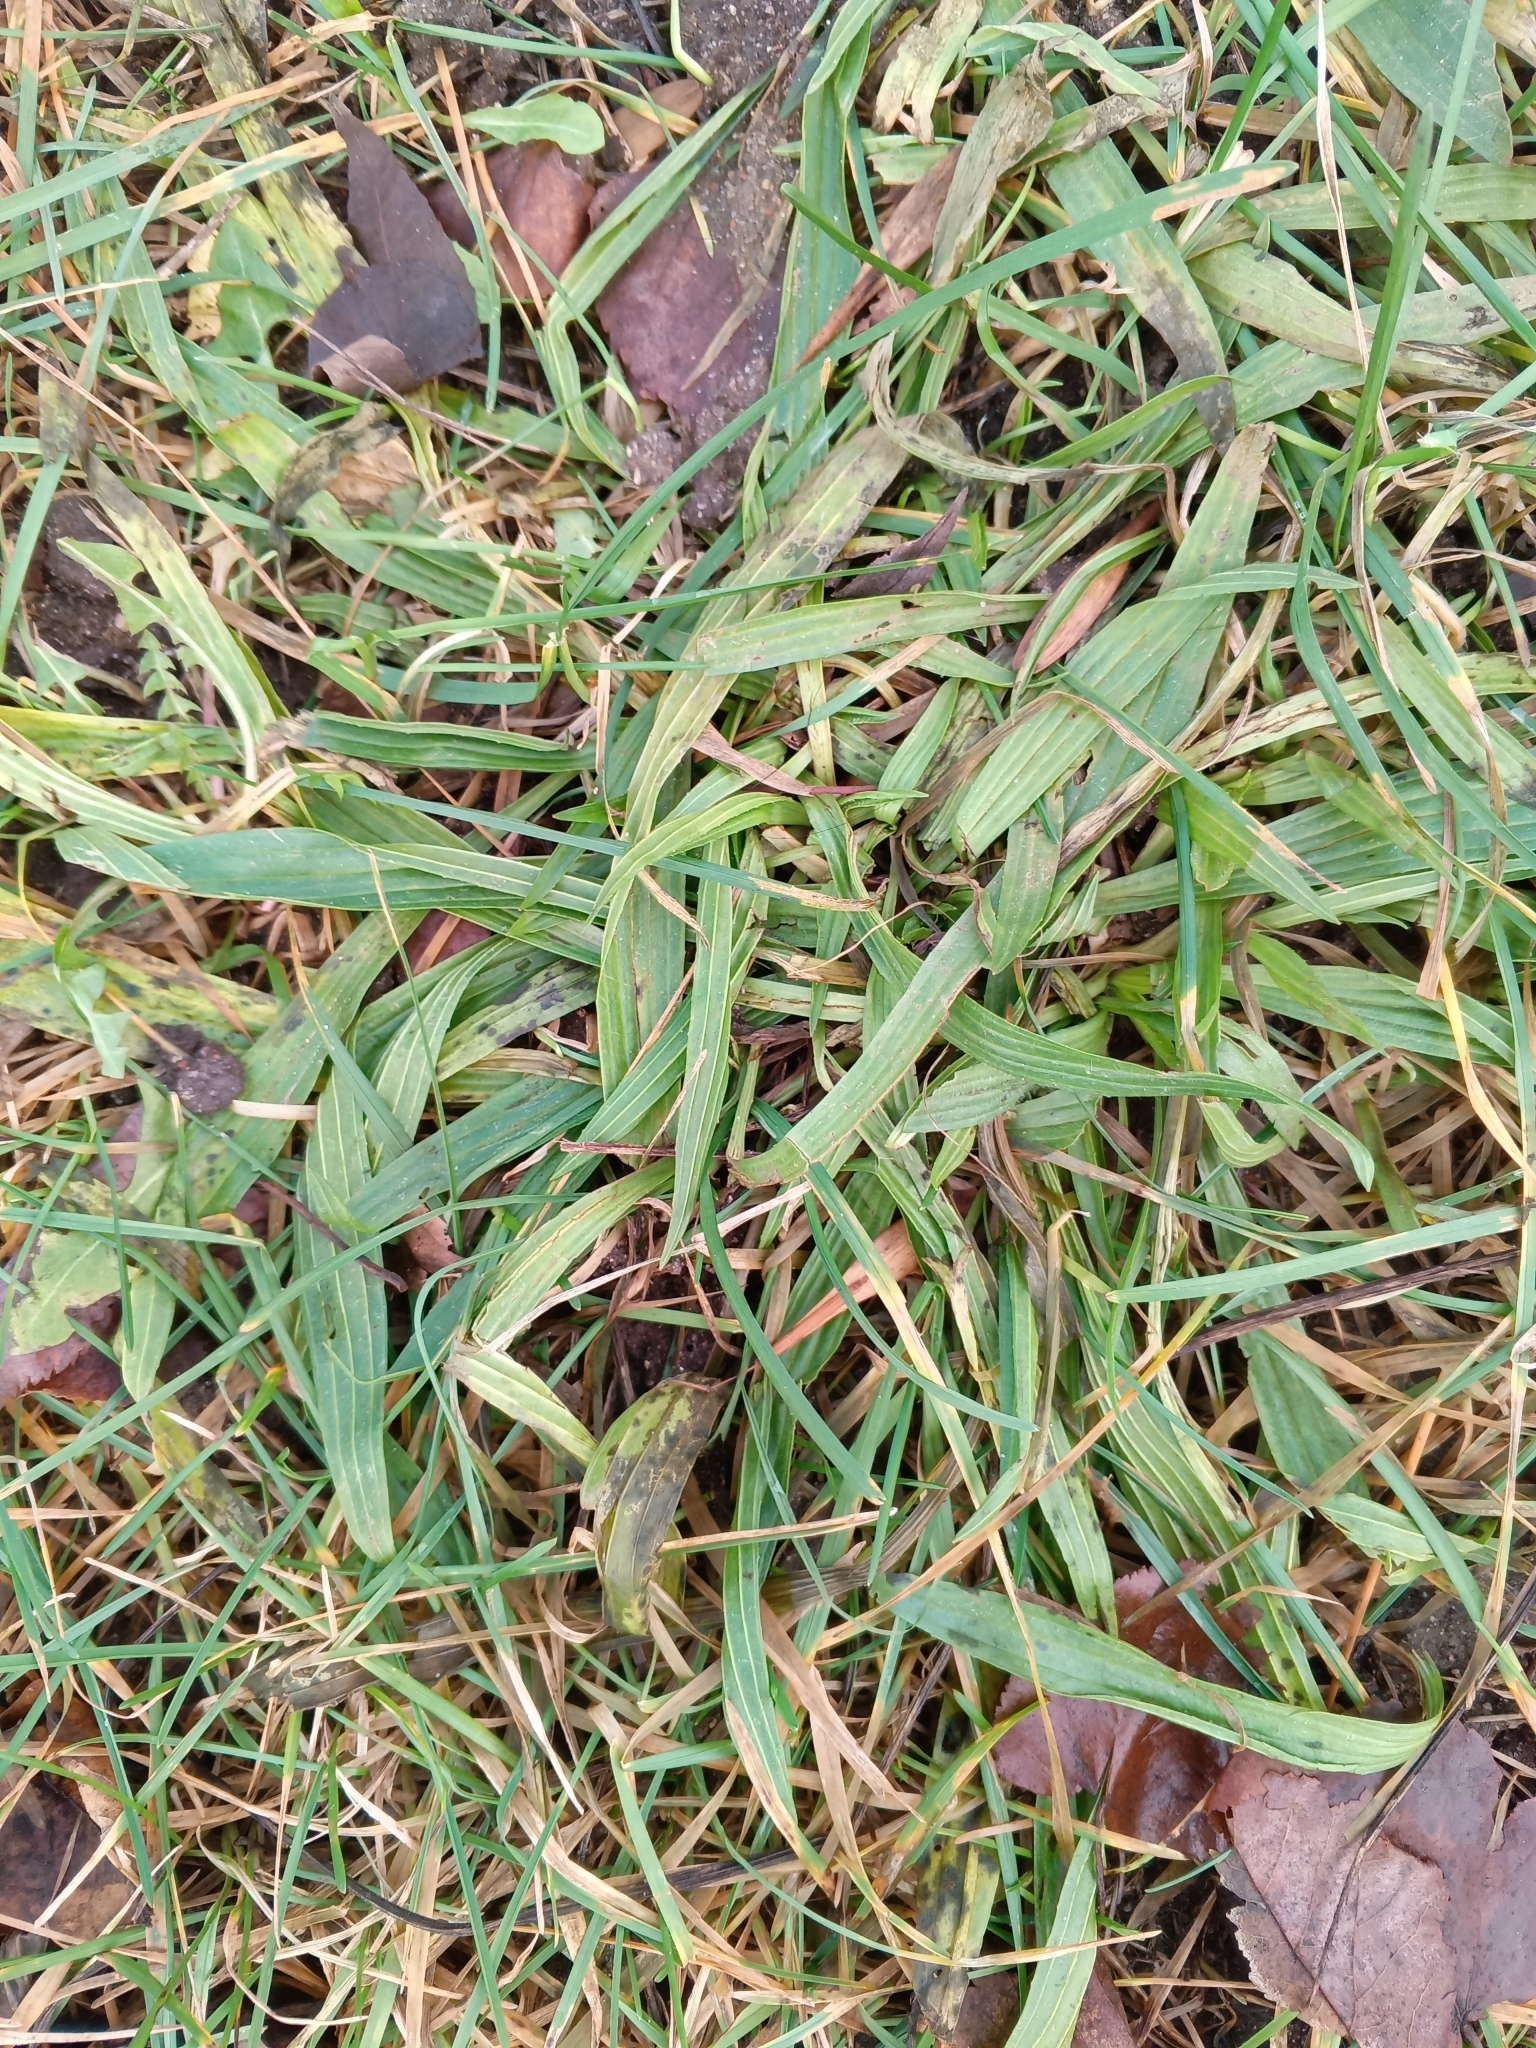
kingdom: Plantae
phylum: Tracheophyta
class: Magnoliopsida
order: Lamiales
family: Plantaginaceae
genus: Plantago
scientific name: Plantago lanceolata
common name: Ribwort plantain
